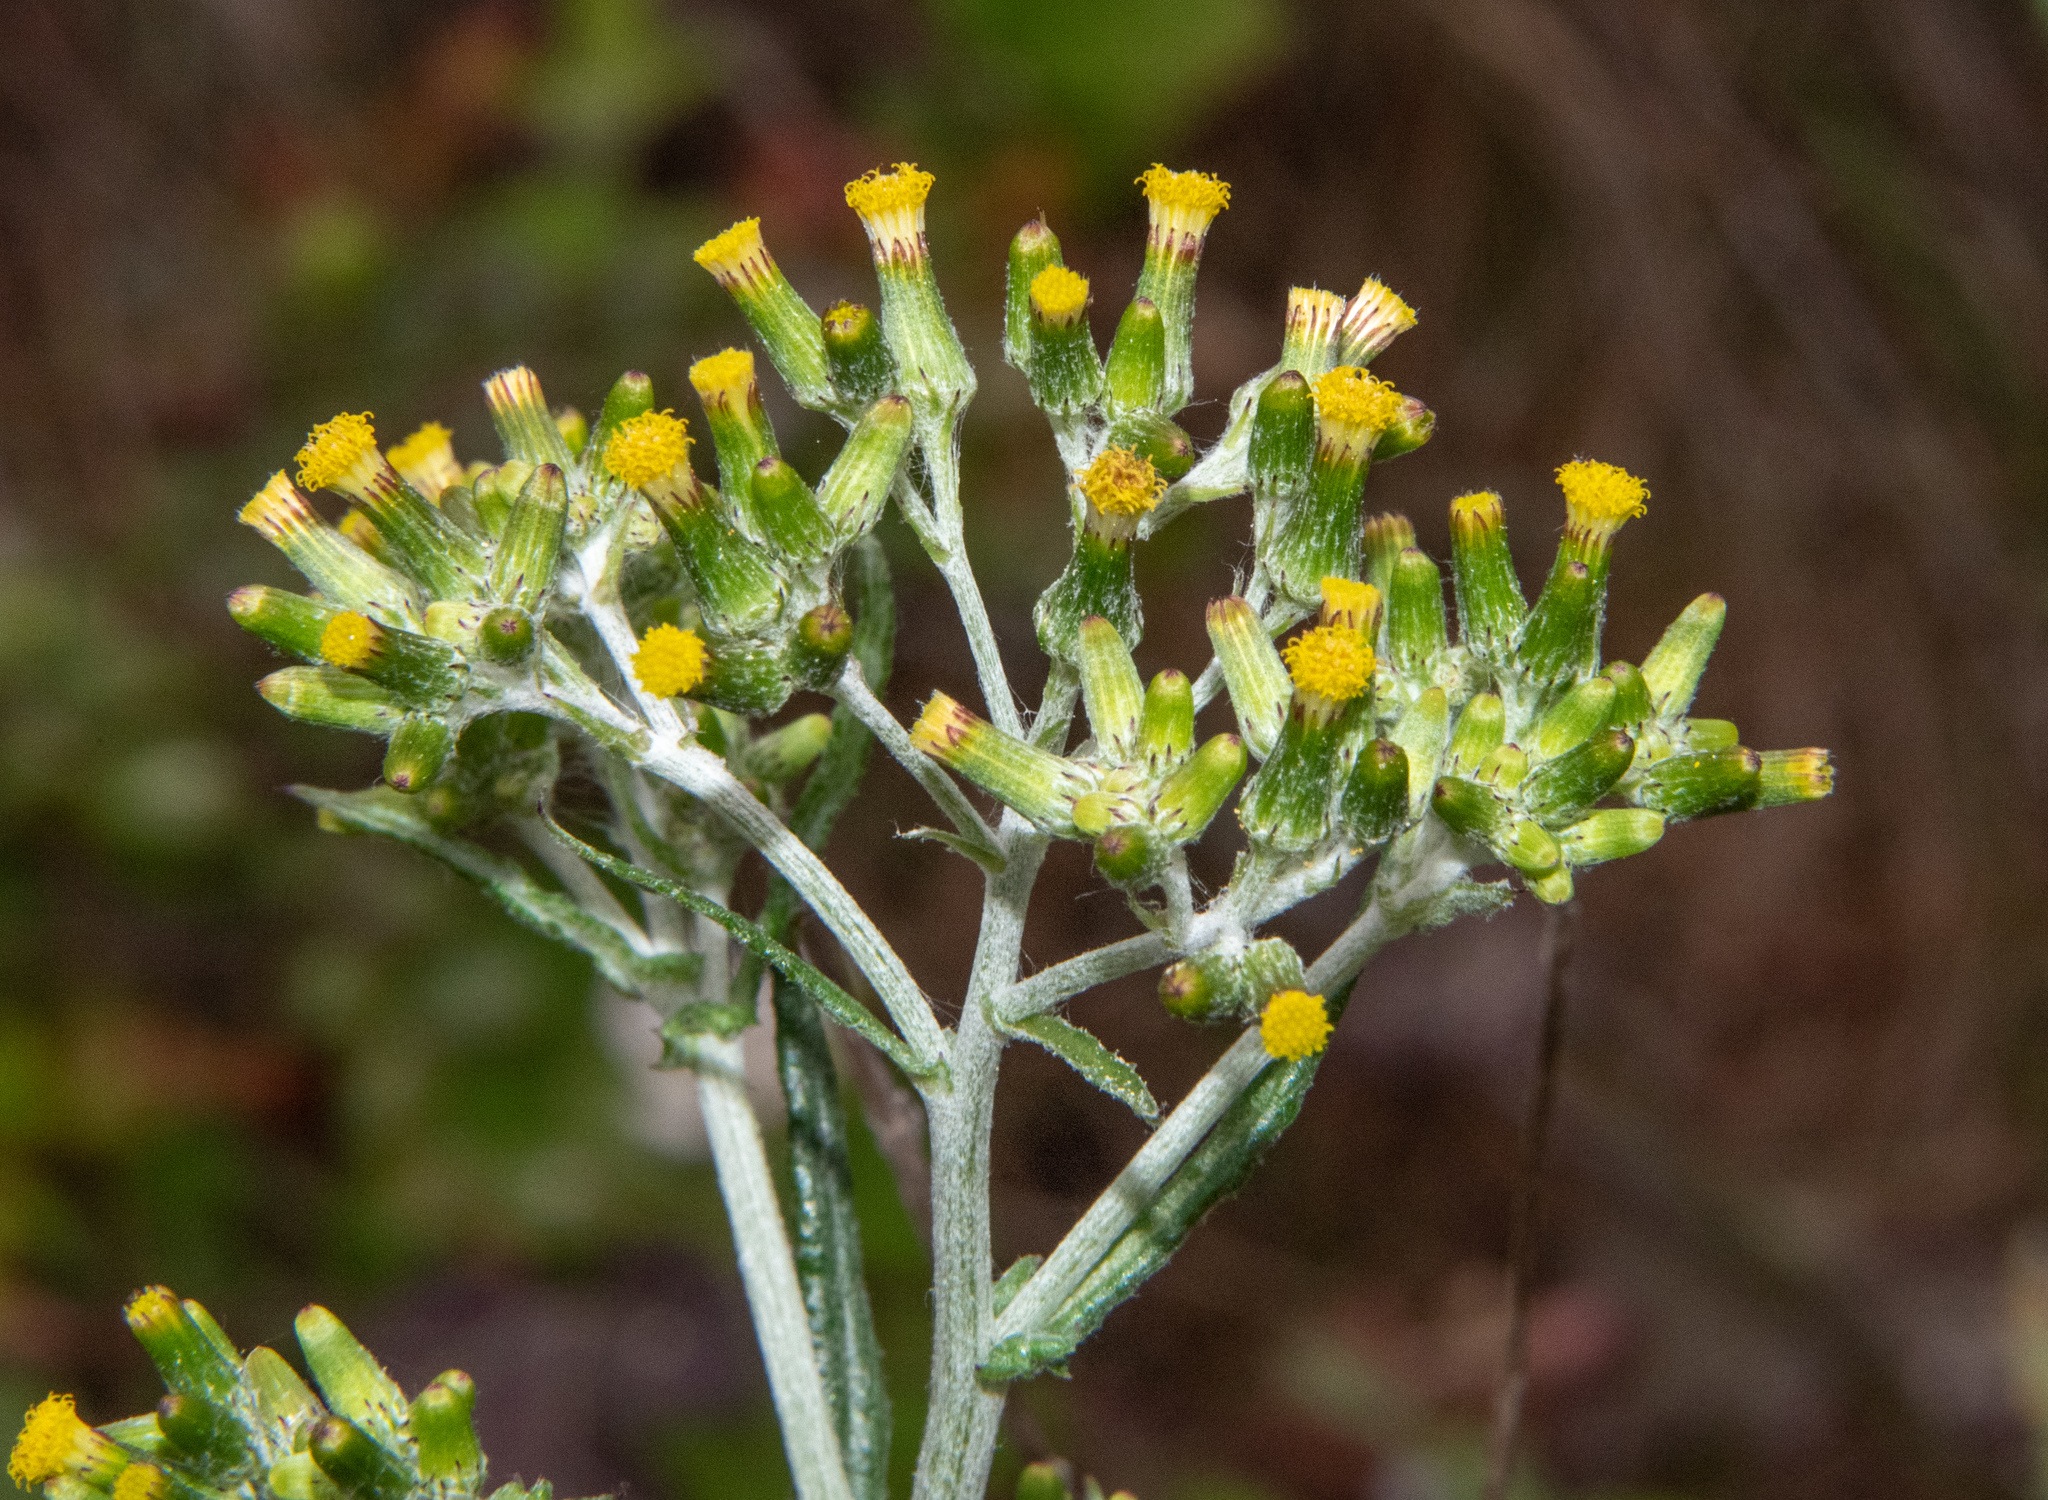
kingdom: Plantae
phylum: Tracheophyta
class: Magnoliopsida
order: Asterales
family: Asteraceae
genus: Senecio
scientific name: Senecio glomeratus
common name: Cutleaf burnweed
